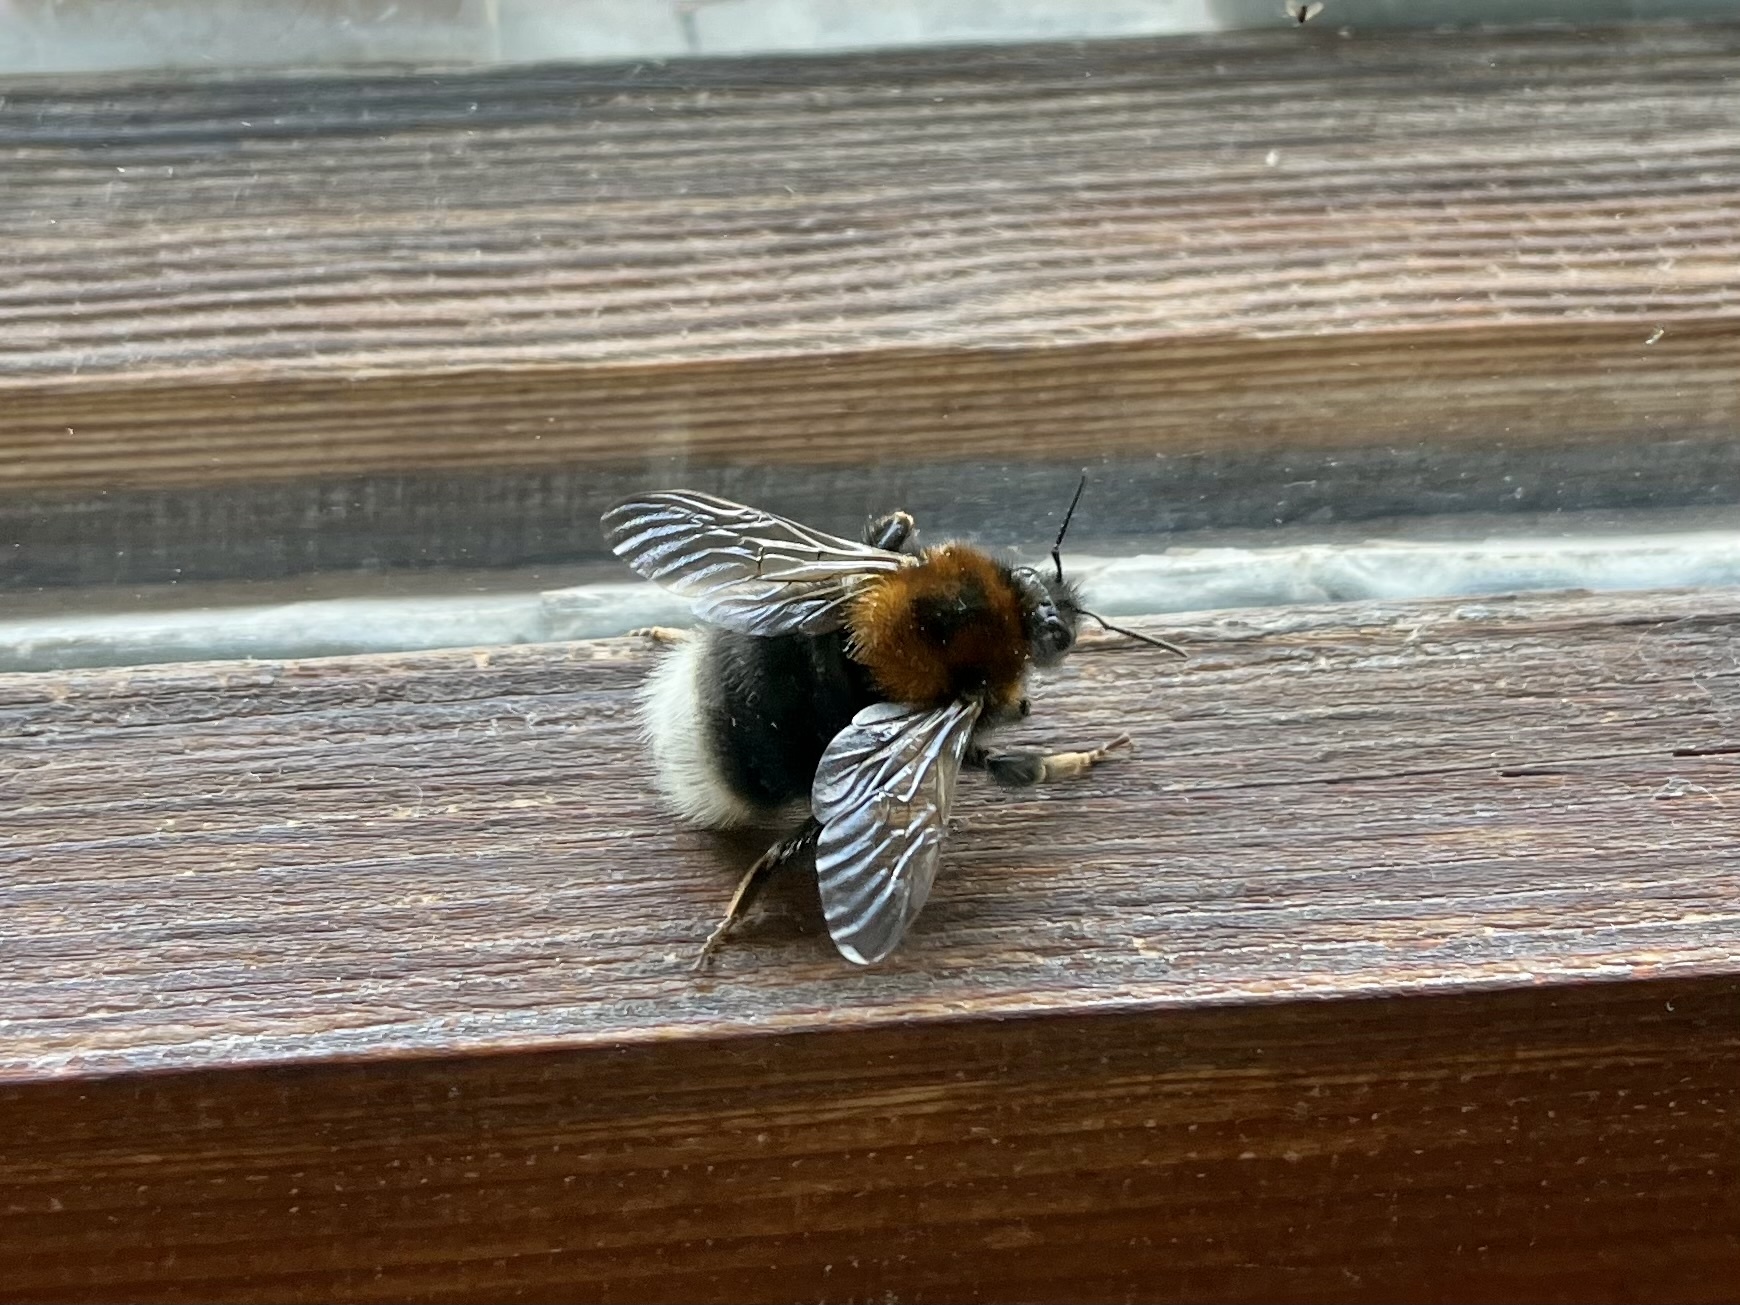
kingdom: Animalia
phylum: Arthropoda
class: Insecta
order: Hymenoptera
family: Apidae
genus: Bombus
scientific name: Bombus hypnorum
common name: New garden bumblebee
